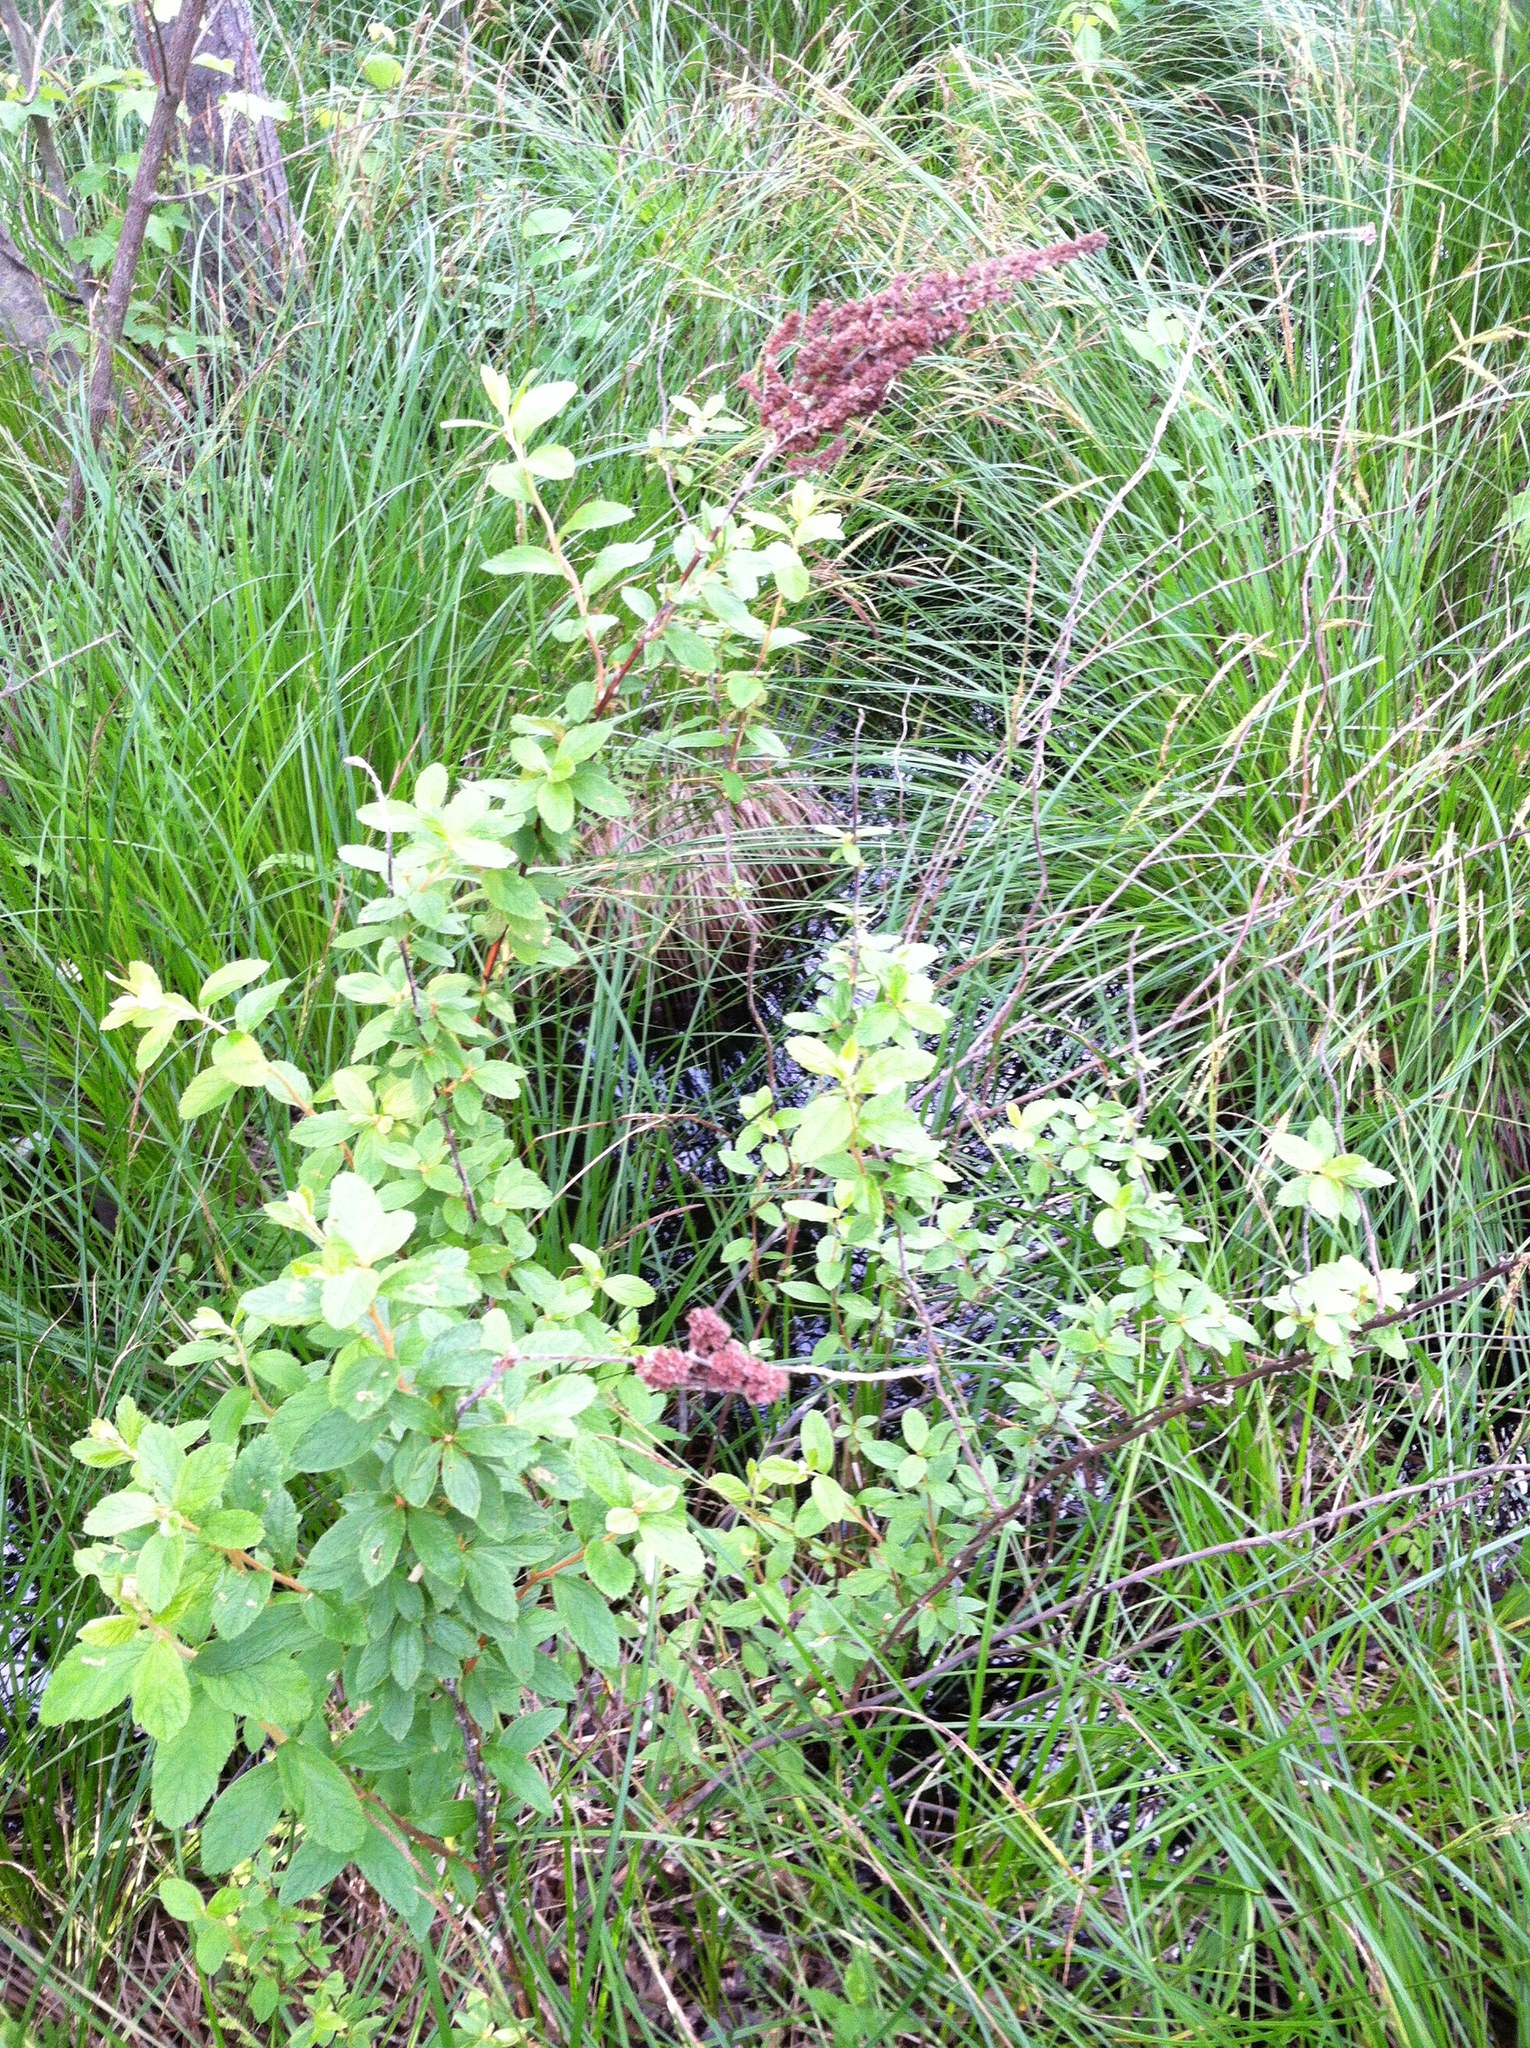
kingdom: Plantae
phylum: Tracheophyta
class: Magnoliopsida
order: Rosales
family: Rosaceae
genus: Spiraea
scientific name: Spiraea tomentosa
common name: Hardhack
